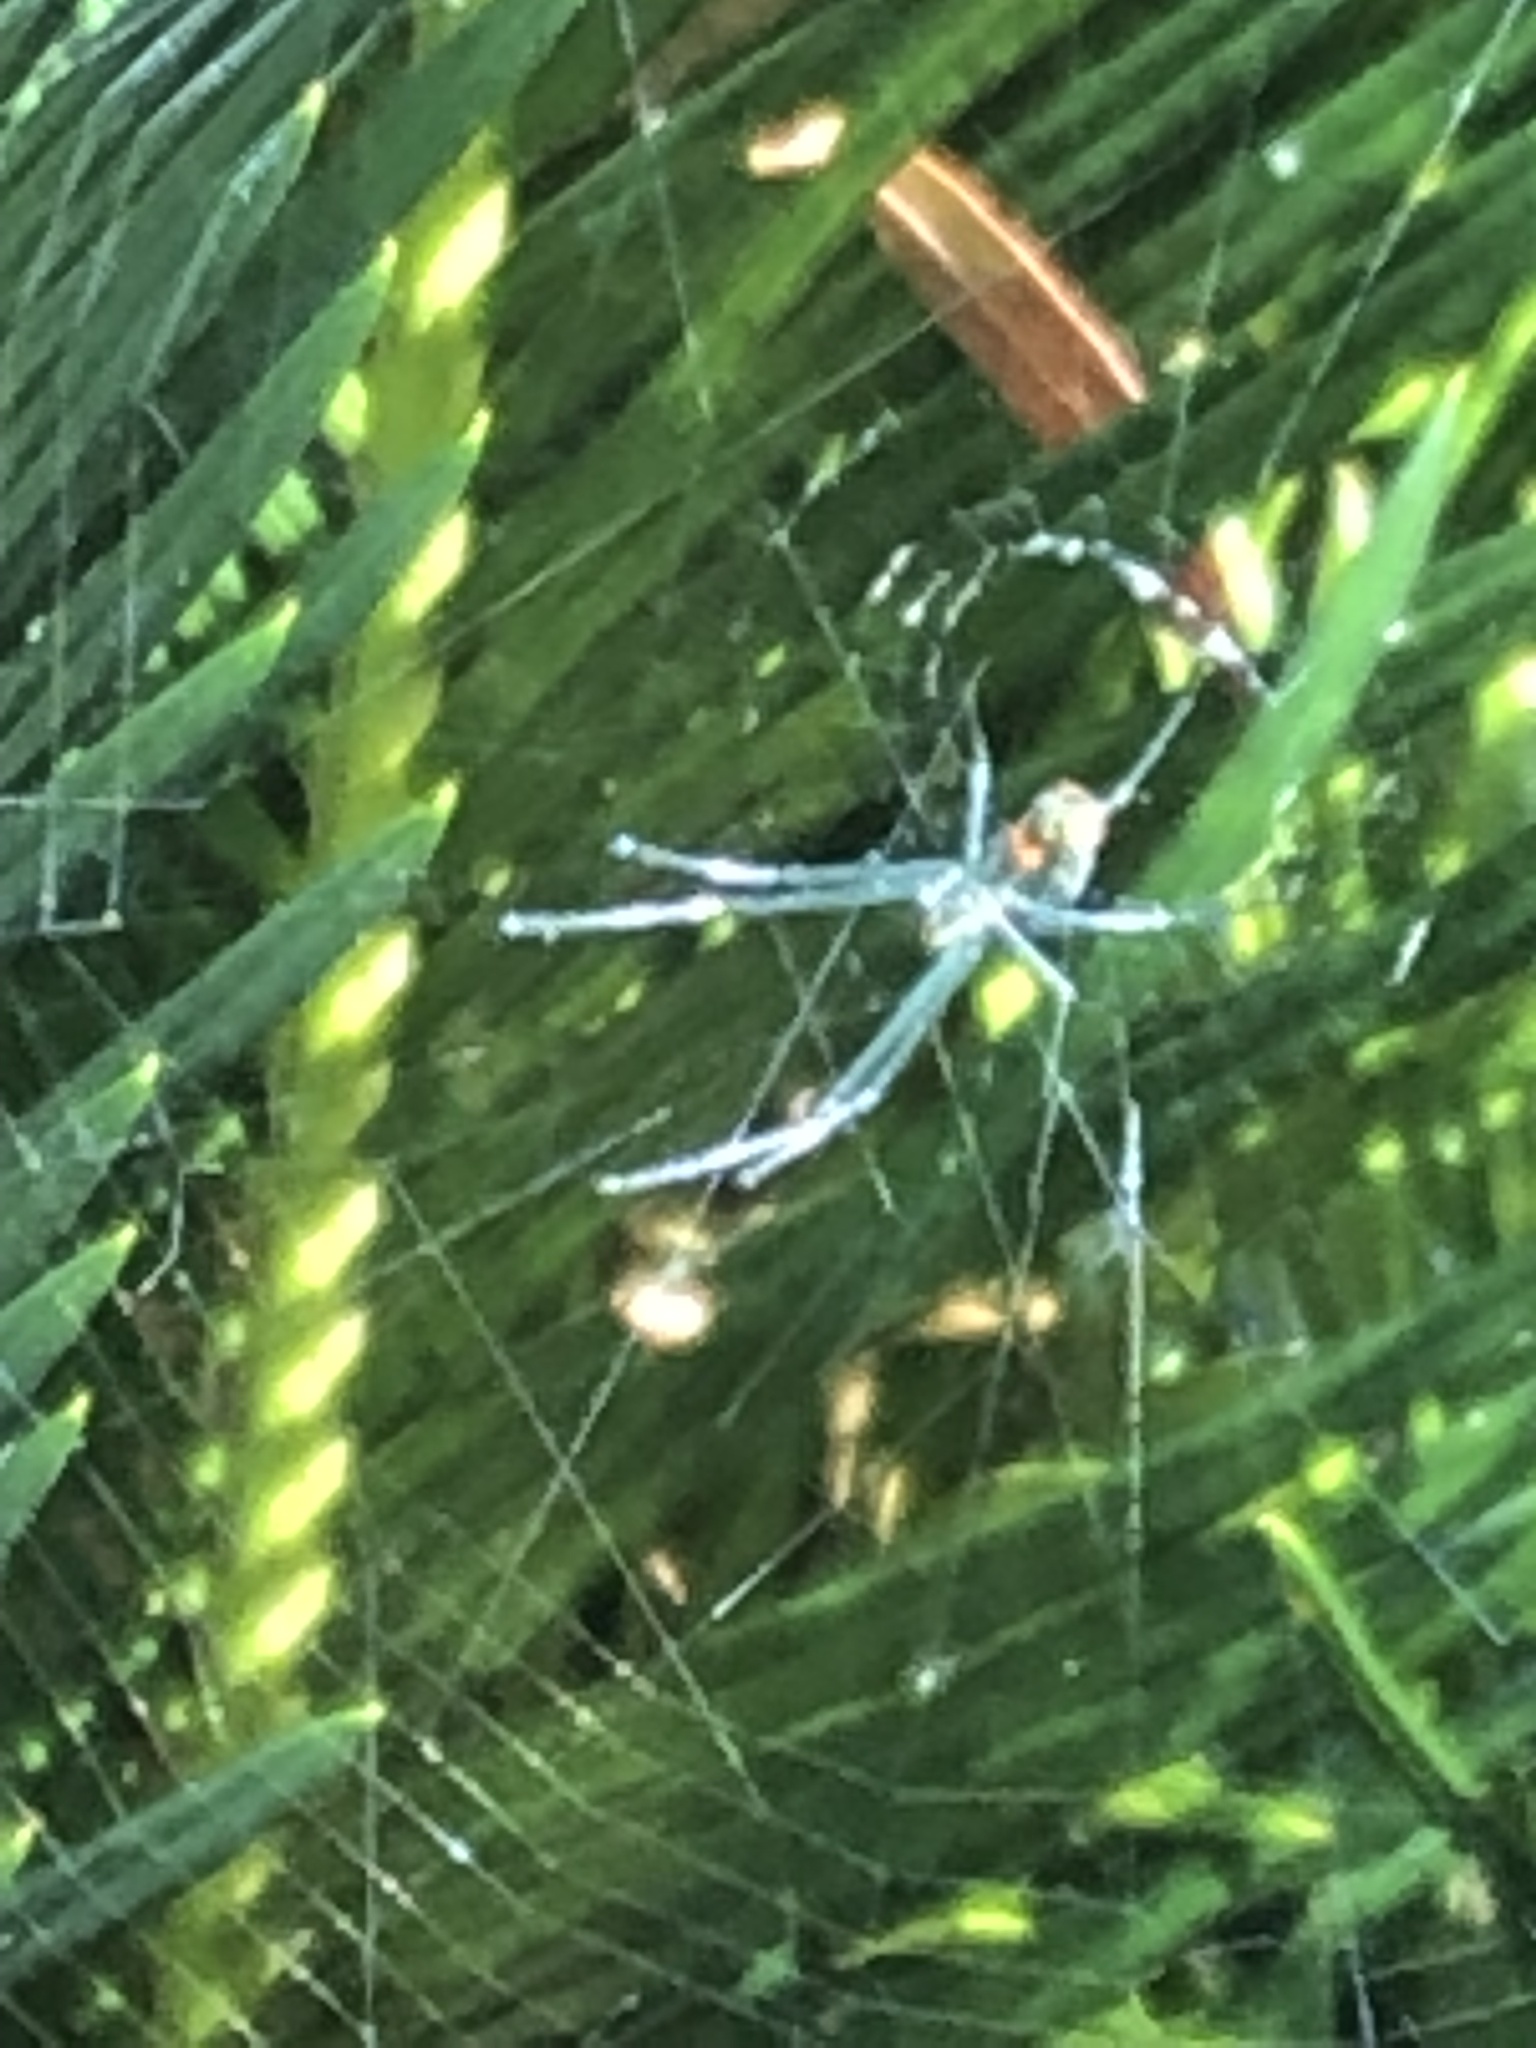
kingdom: Animalia
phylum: Arthropoda
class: Arachnida
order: Araneae
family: Tetragnathidae
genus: Leucauge
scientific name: Leucauge argyrobapta
